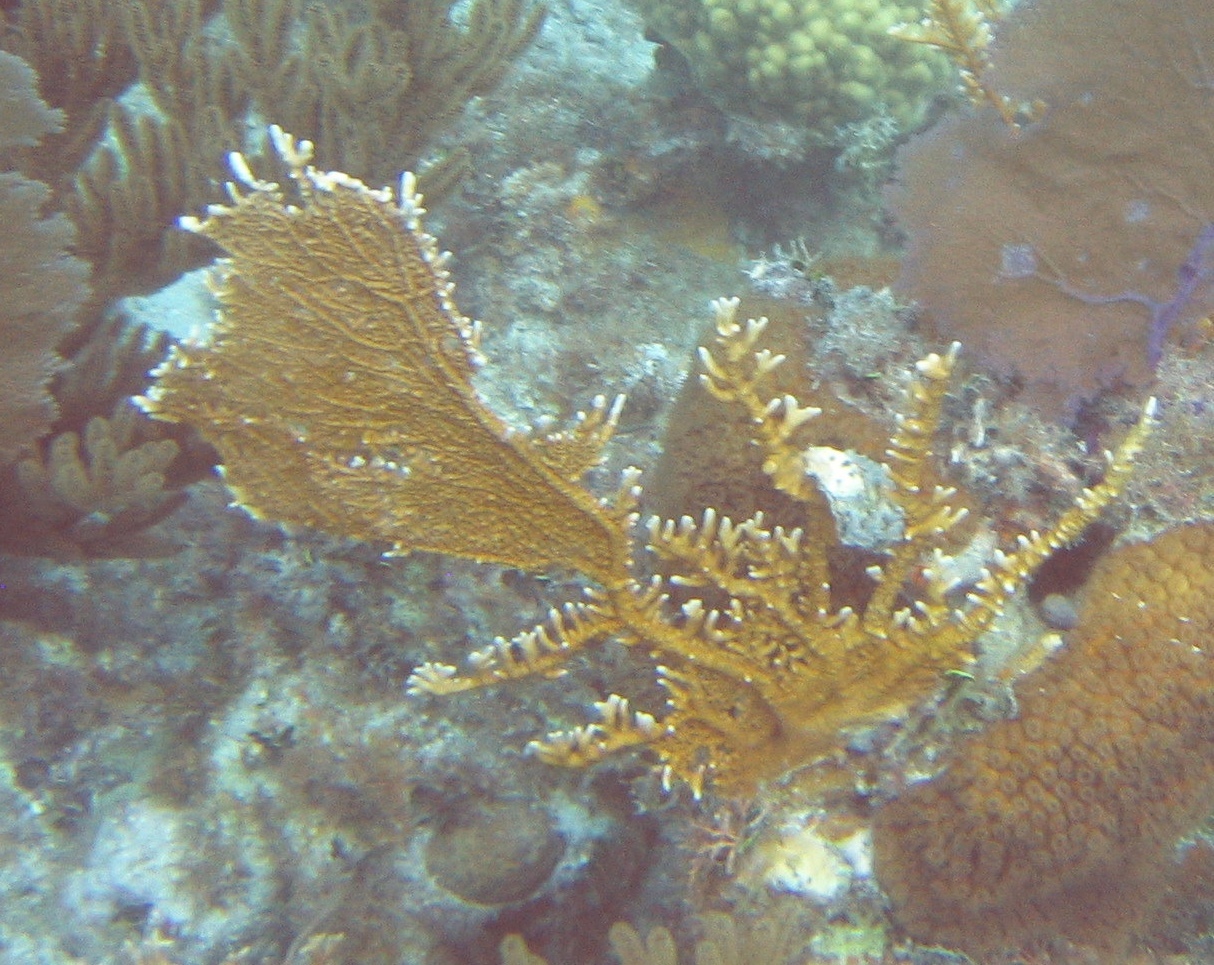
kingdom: Animalia
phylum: Cnidaria
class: Hydrozoa
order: Anthoathecata
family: Milleporidae
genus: Millepora
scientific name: Millepora alcicornis
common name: Branching fire coral
